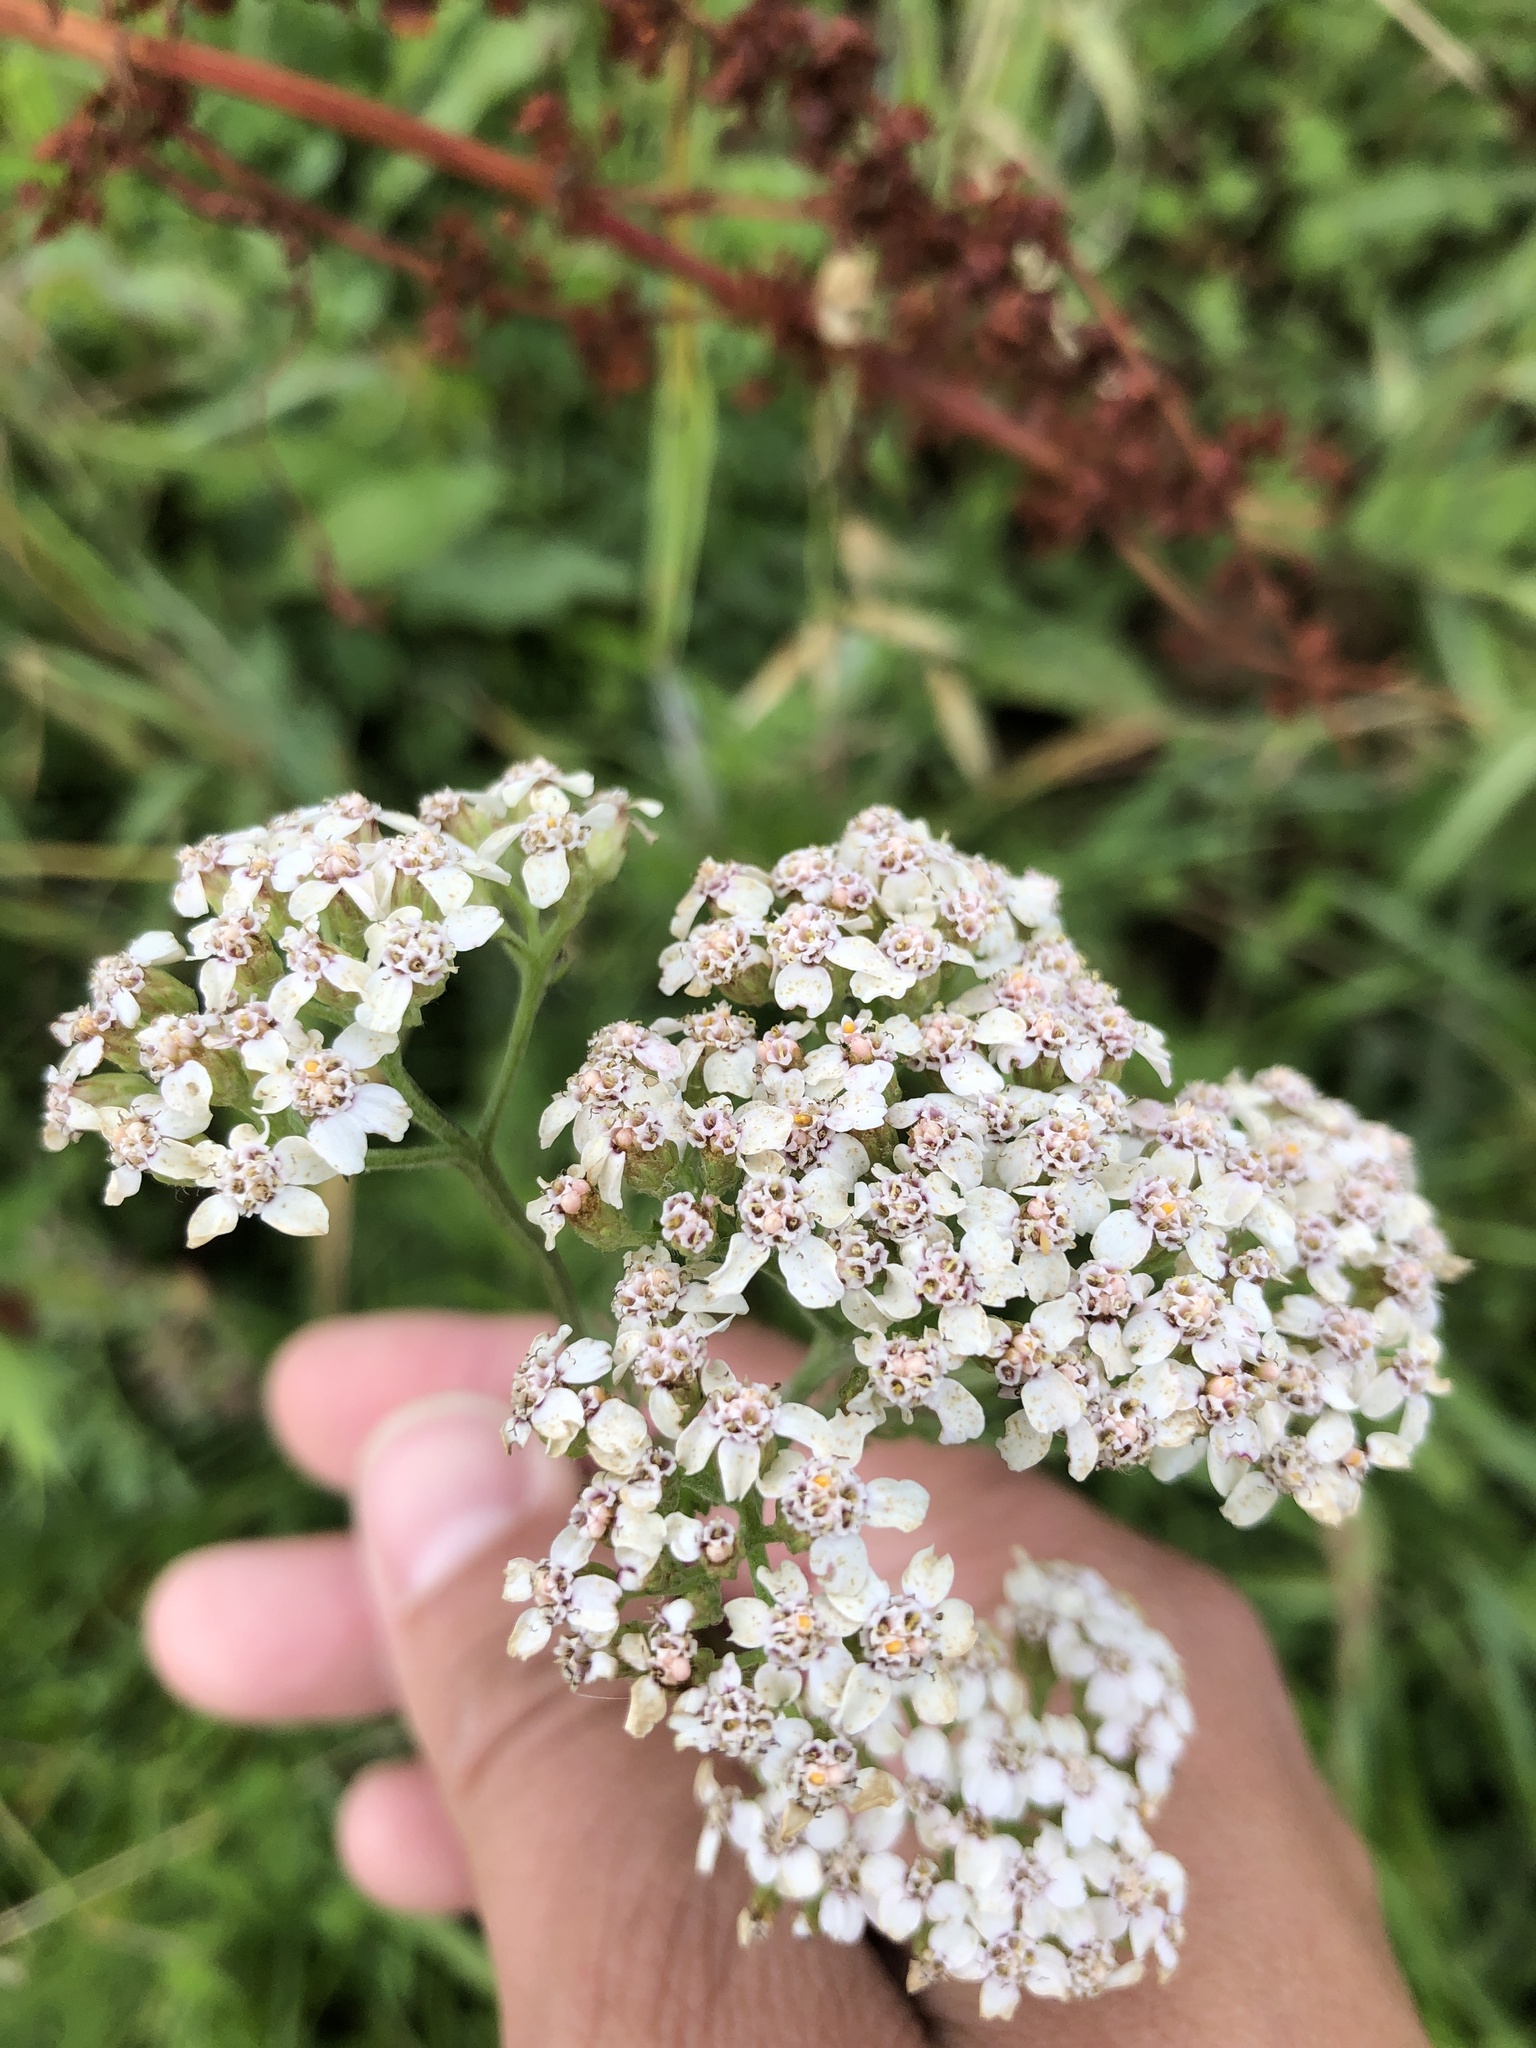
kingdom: Plantae
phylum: Tracheophyta
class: Magnoliopsida
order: Asterales
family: Asteraceae
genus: Achillea
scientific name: Achillea millefolium
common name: Yarrow
